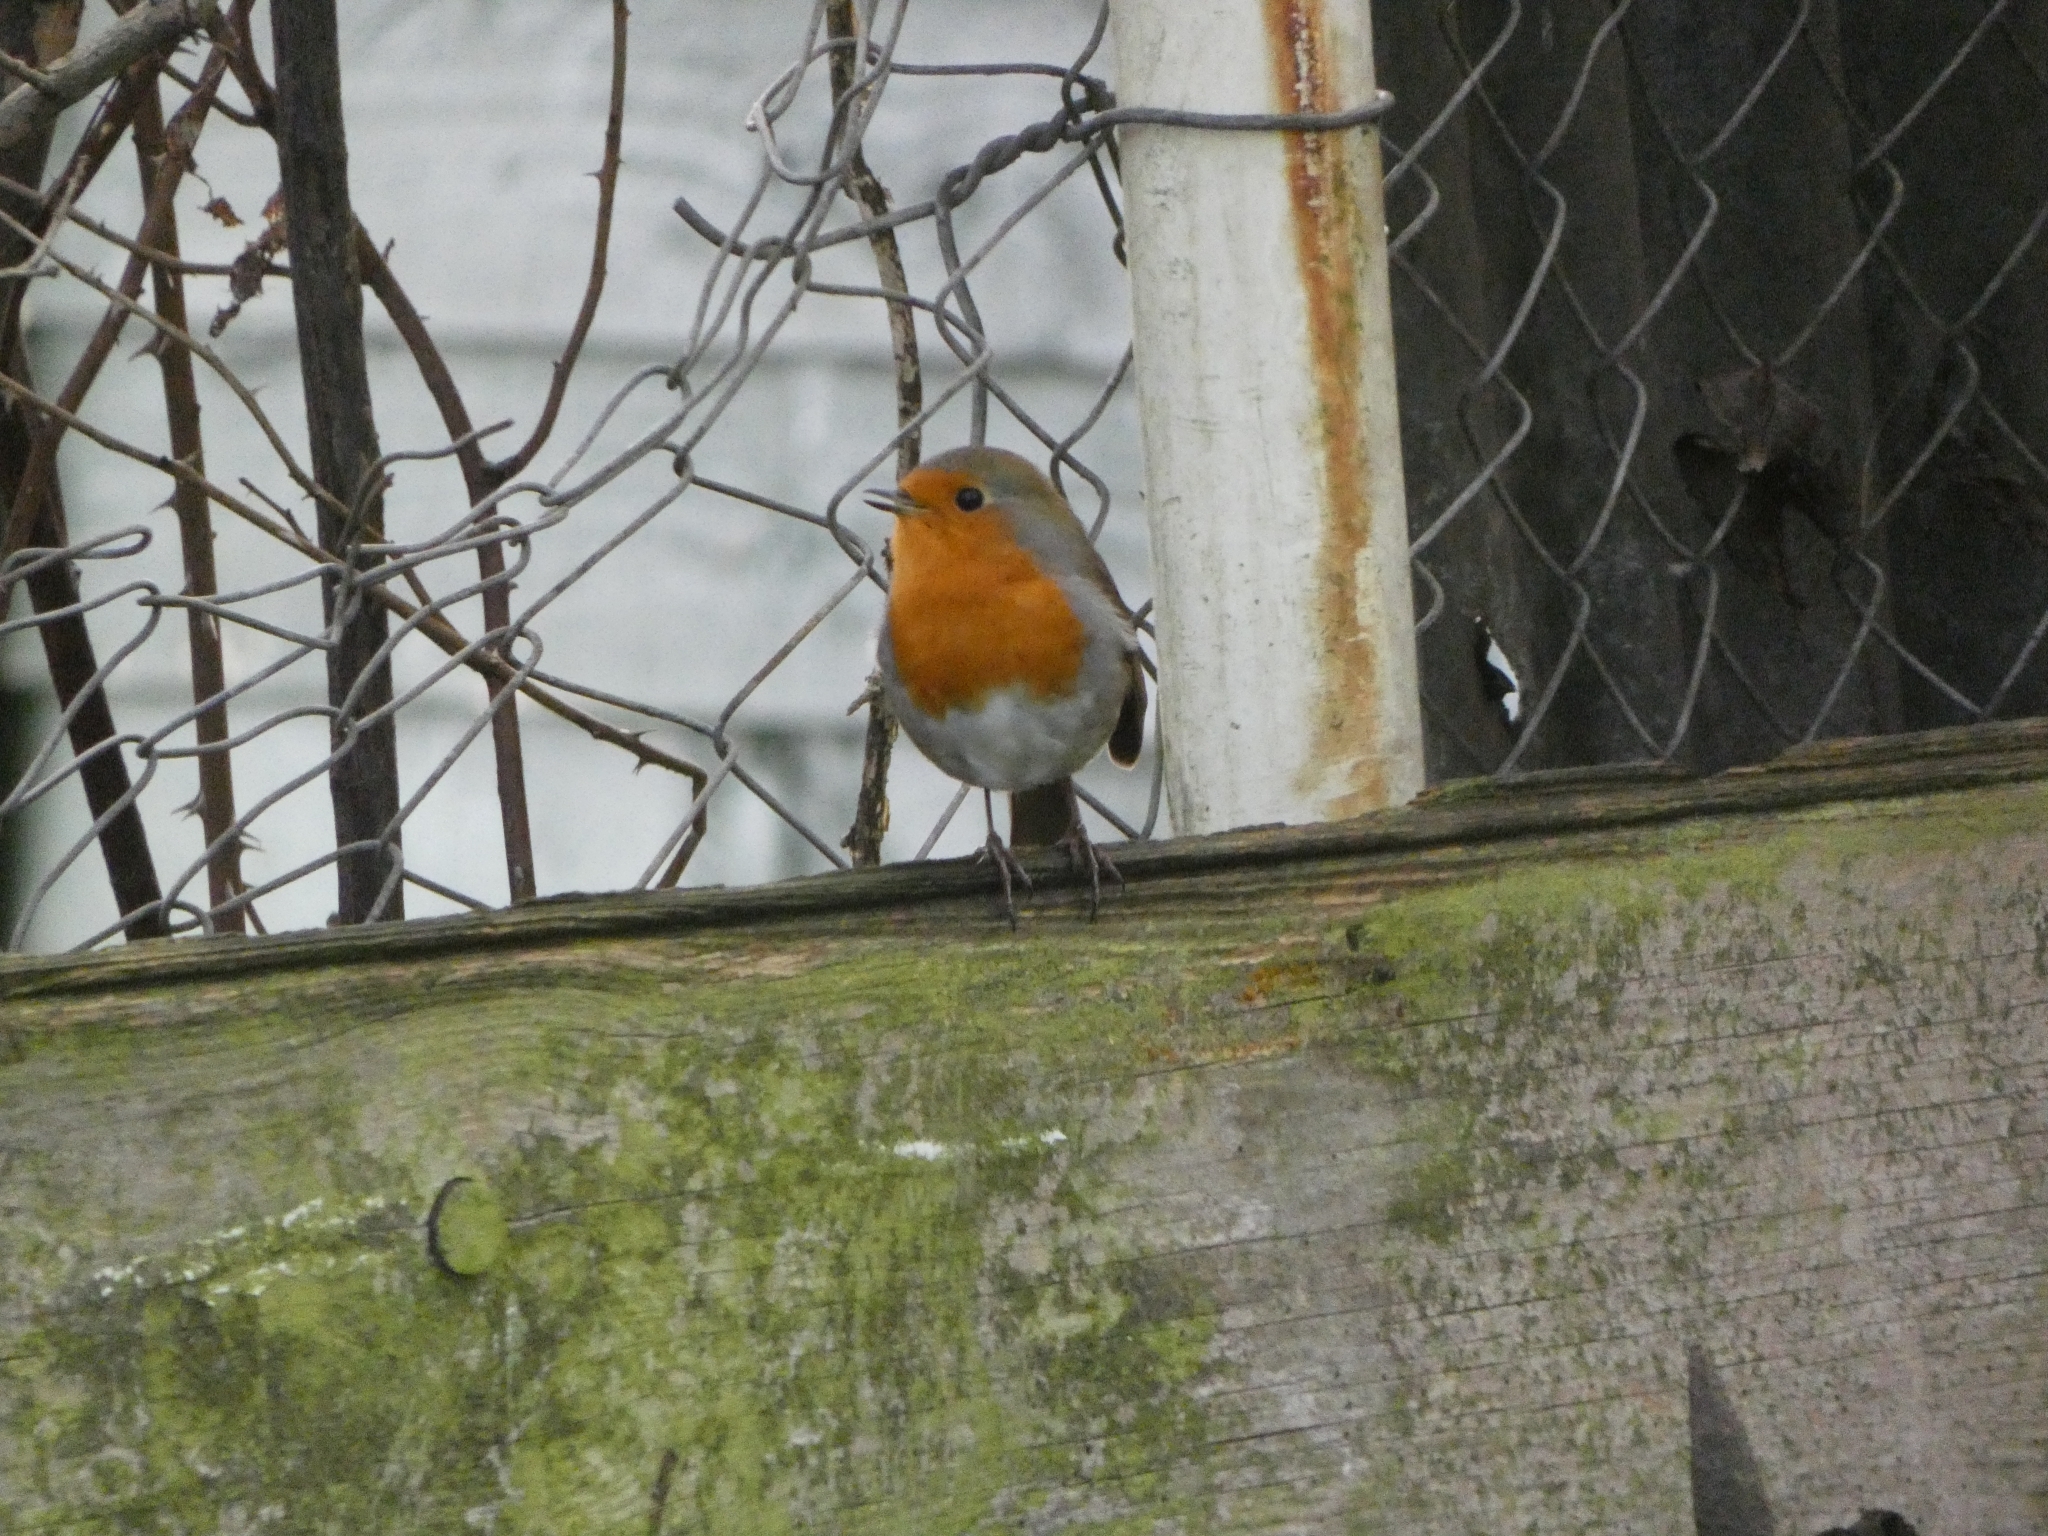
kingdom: Animalia
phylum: Chordata
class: Aves
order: Passeriformes
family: Muscicapidae
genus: Erithacus
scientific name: Erithacus rubecula
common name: European robin
